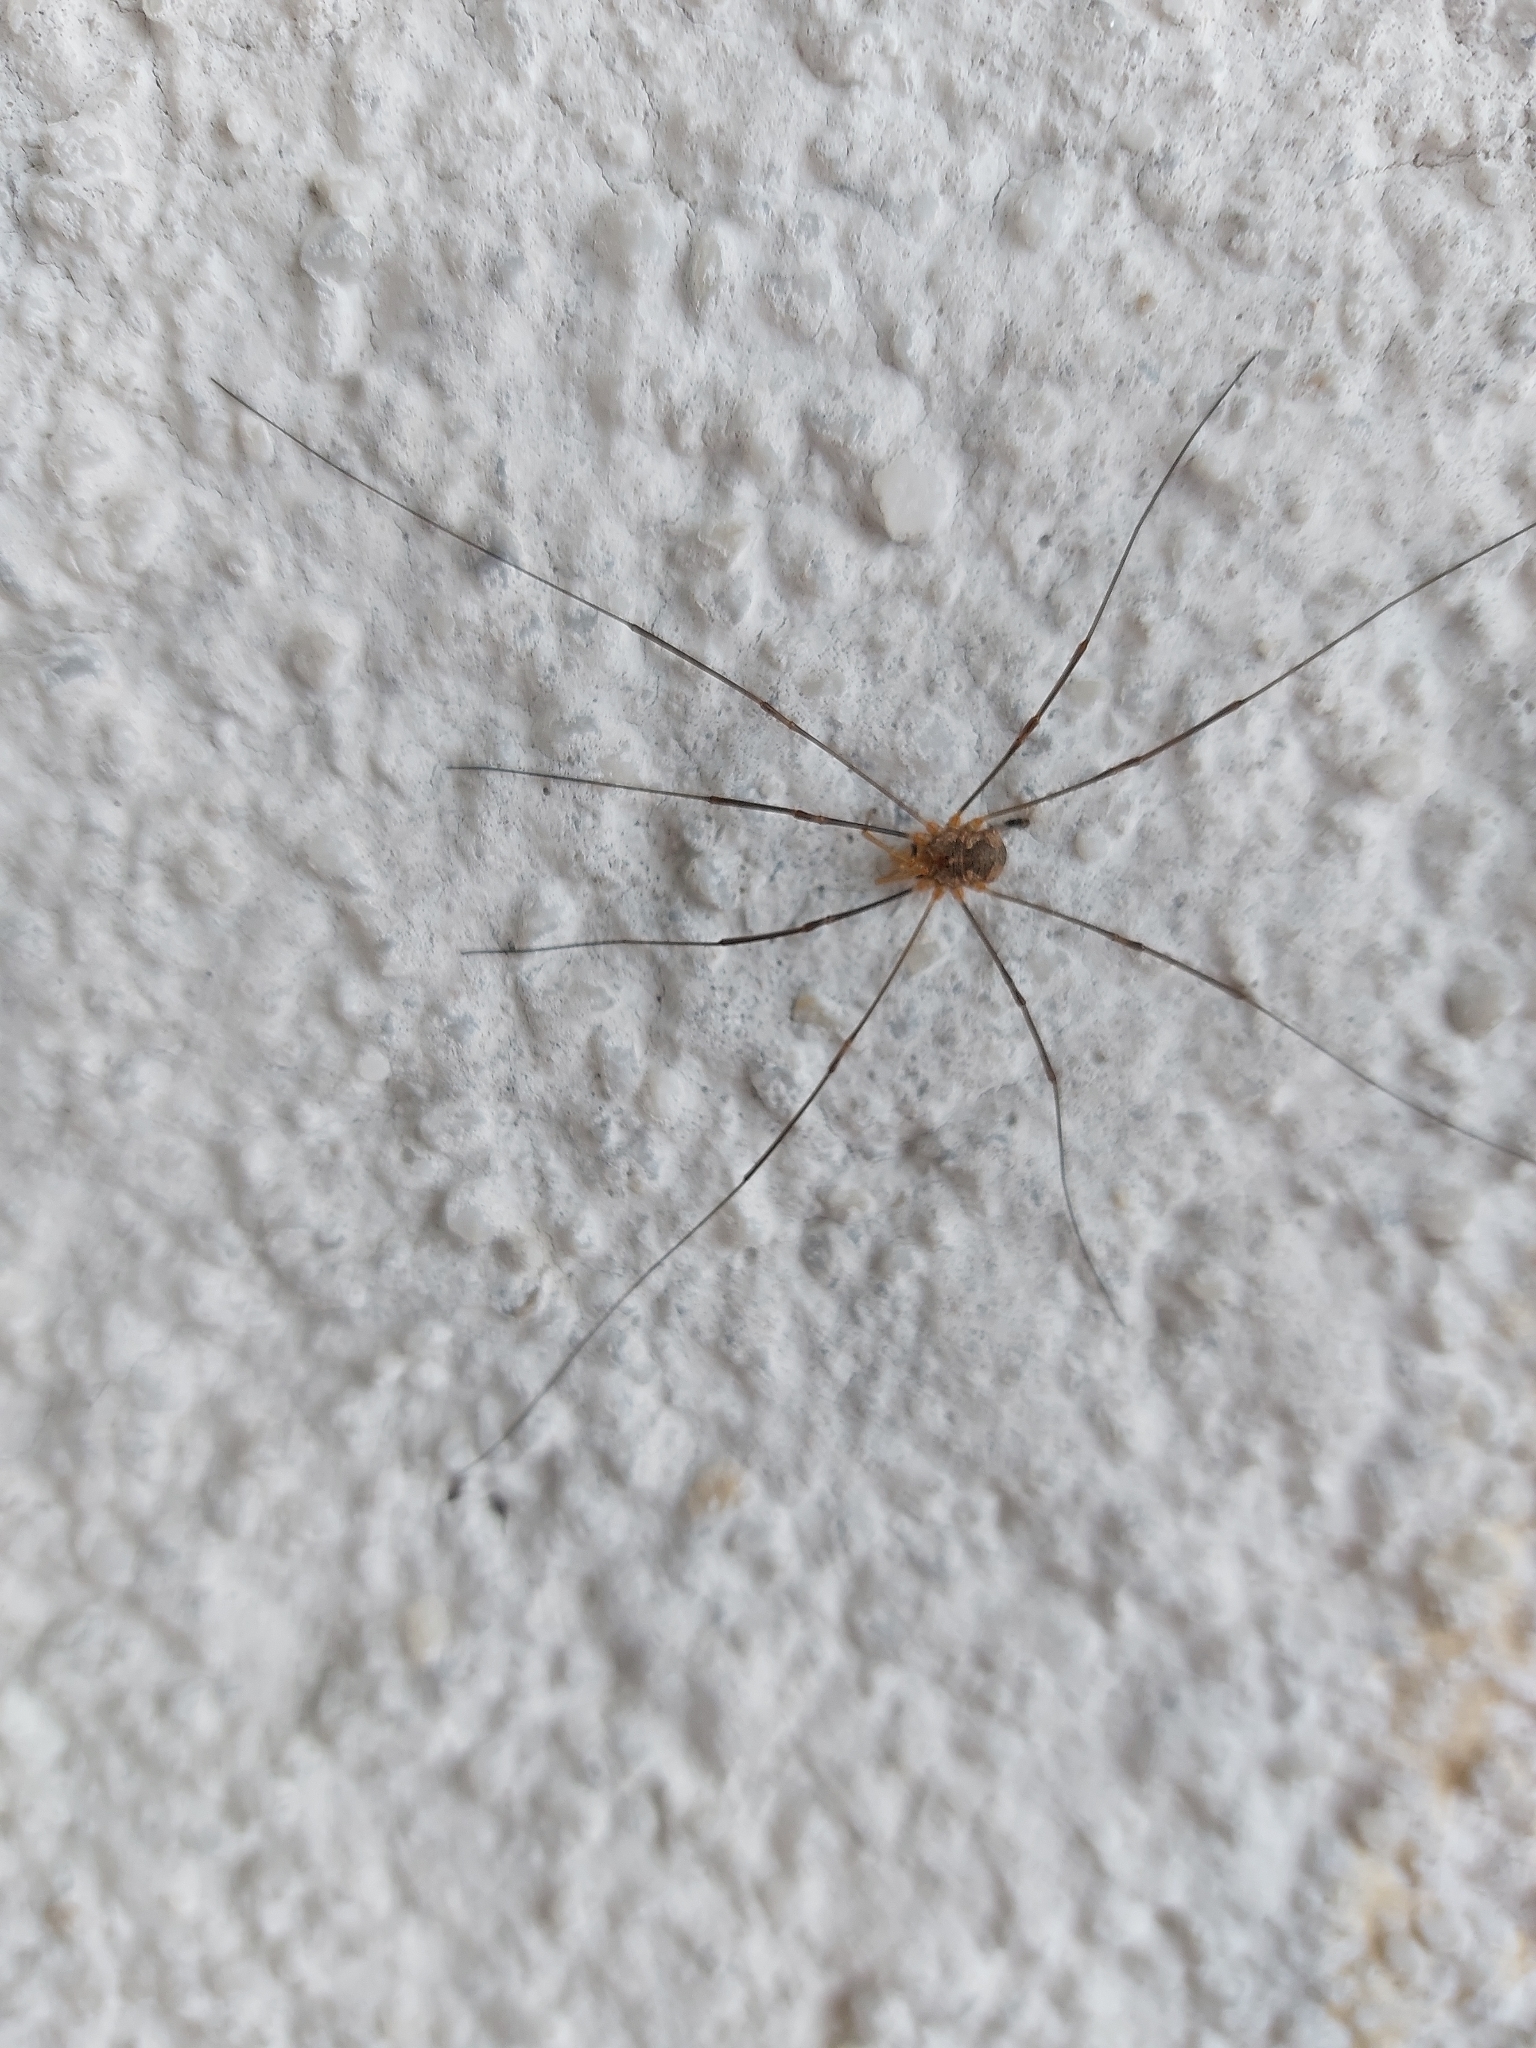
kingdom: Animalia
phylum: Arthropoda
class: Arachnida
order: Opiliones
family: Phalangiidae
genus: Phalangium
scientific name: Phalangium opilio
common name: Daddy longleg
